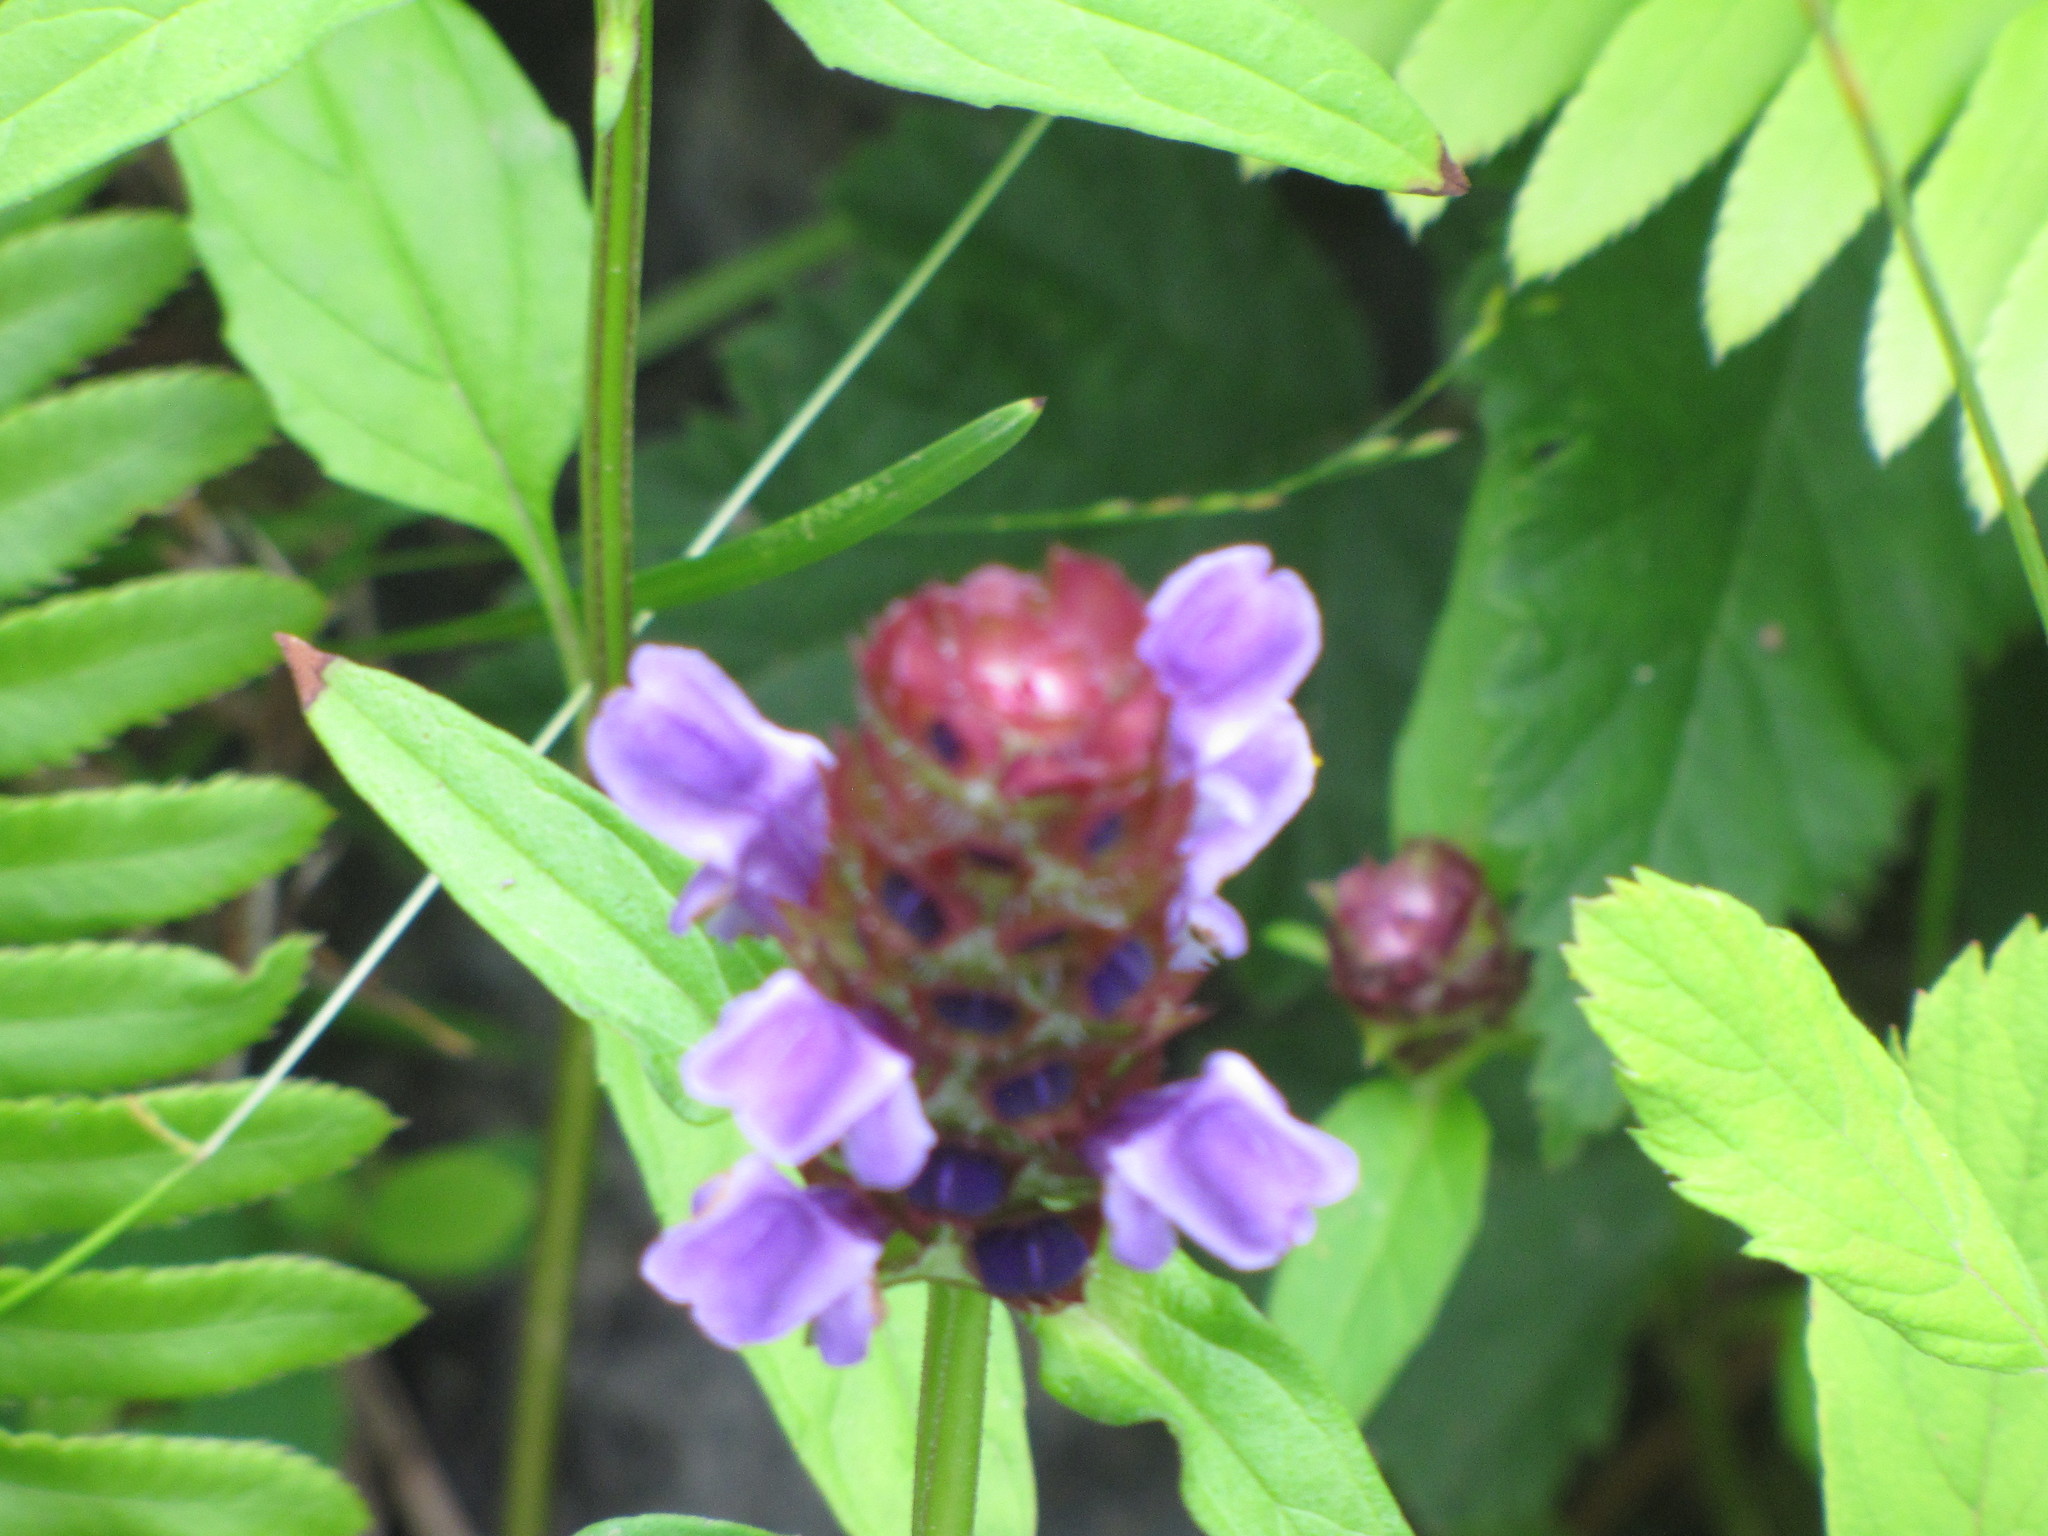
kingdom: Plantae
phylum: Tracheophyta
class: Magnoliopsida
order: Lamiales
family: Lamiaceae
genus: Prunella
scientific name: Prunella vulgaris
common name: Heal-all
